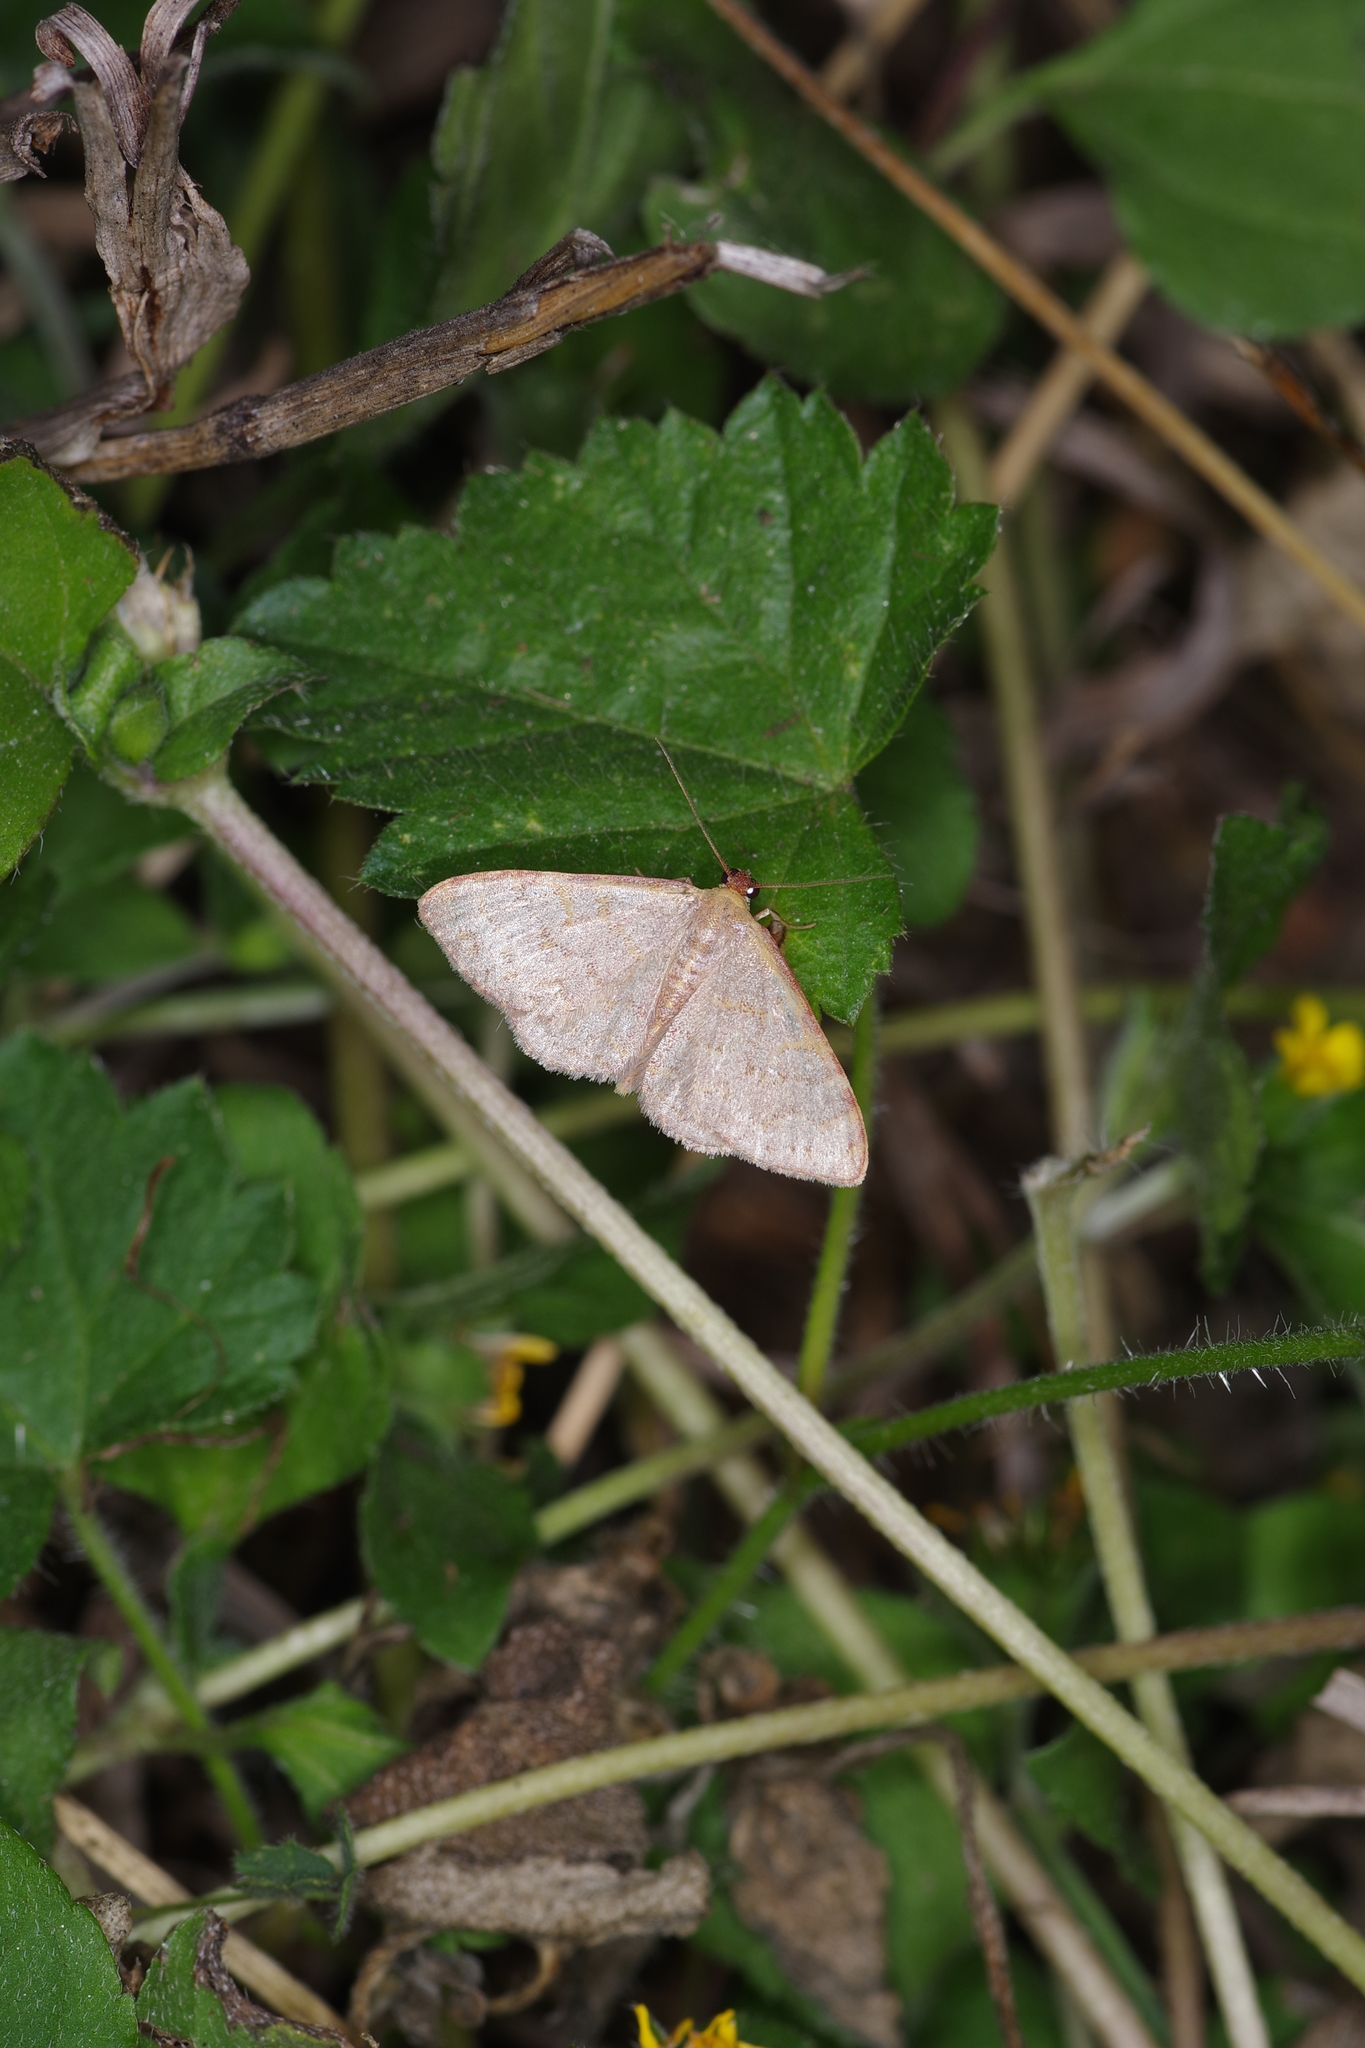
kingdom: Animalia
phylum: Arthropoda
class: Insecta
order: Lepidoptera
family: Geometridae
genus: Leptostales
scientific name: Leptostales pannaria
